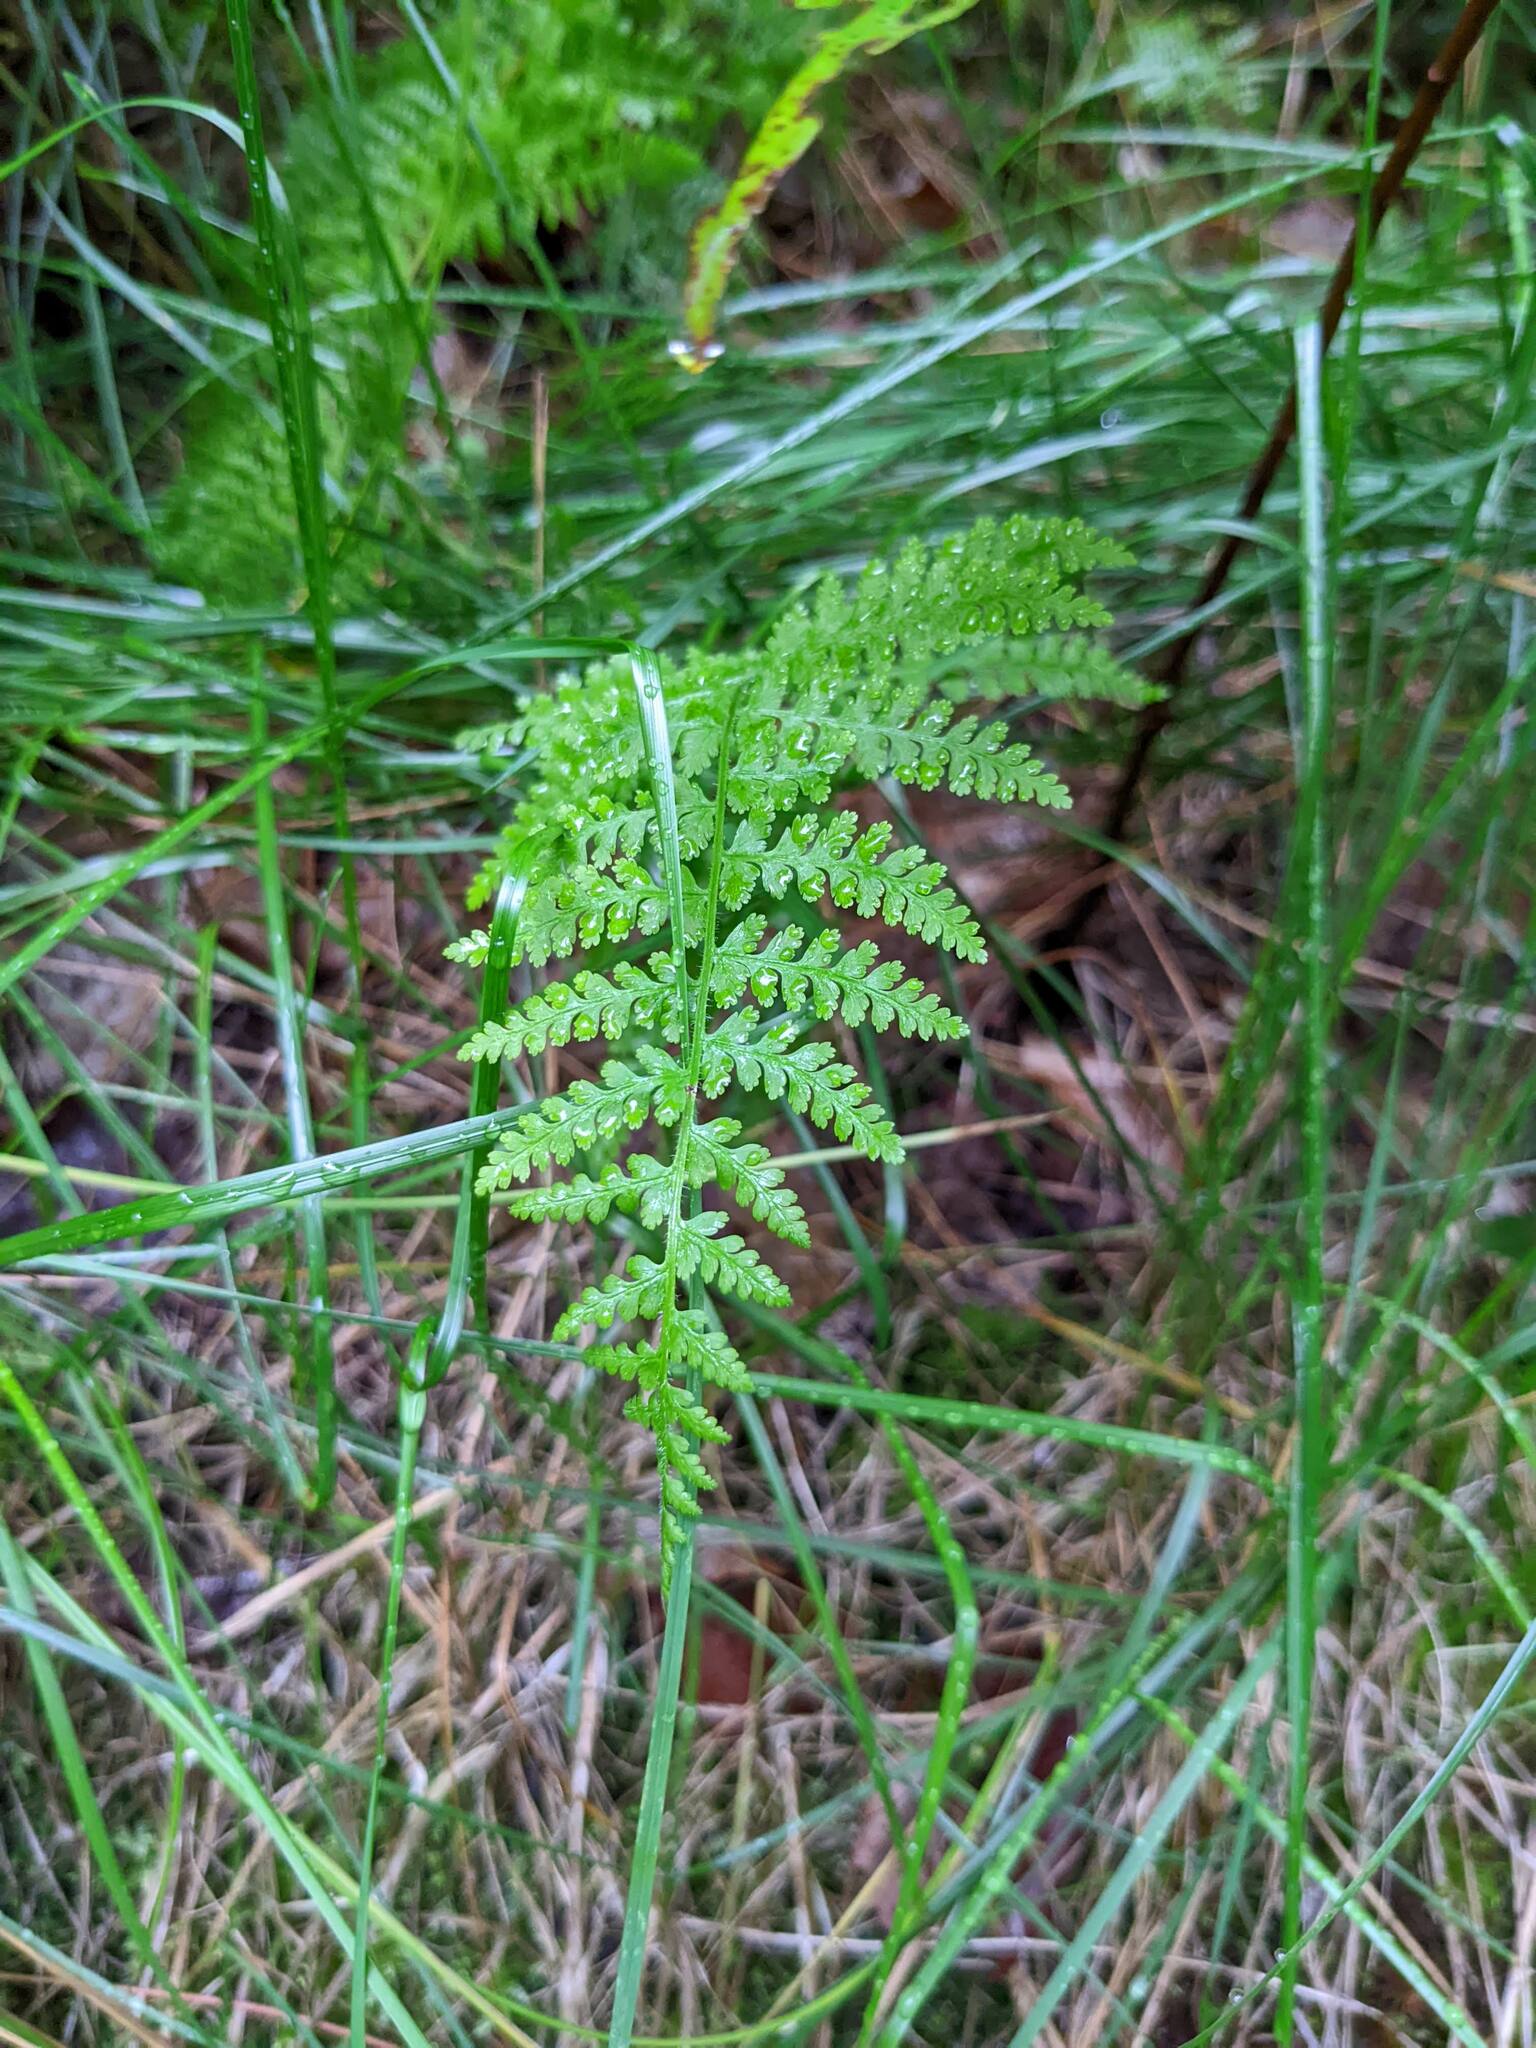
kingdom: Plantae
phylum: Tracheophyta
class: Polypodiopsida
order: Polypodiales
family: Dennstaedtiaceae
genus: Sitobolium
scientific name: Sitobolium punctilobum
